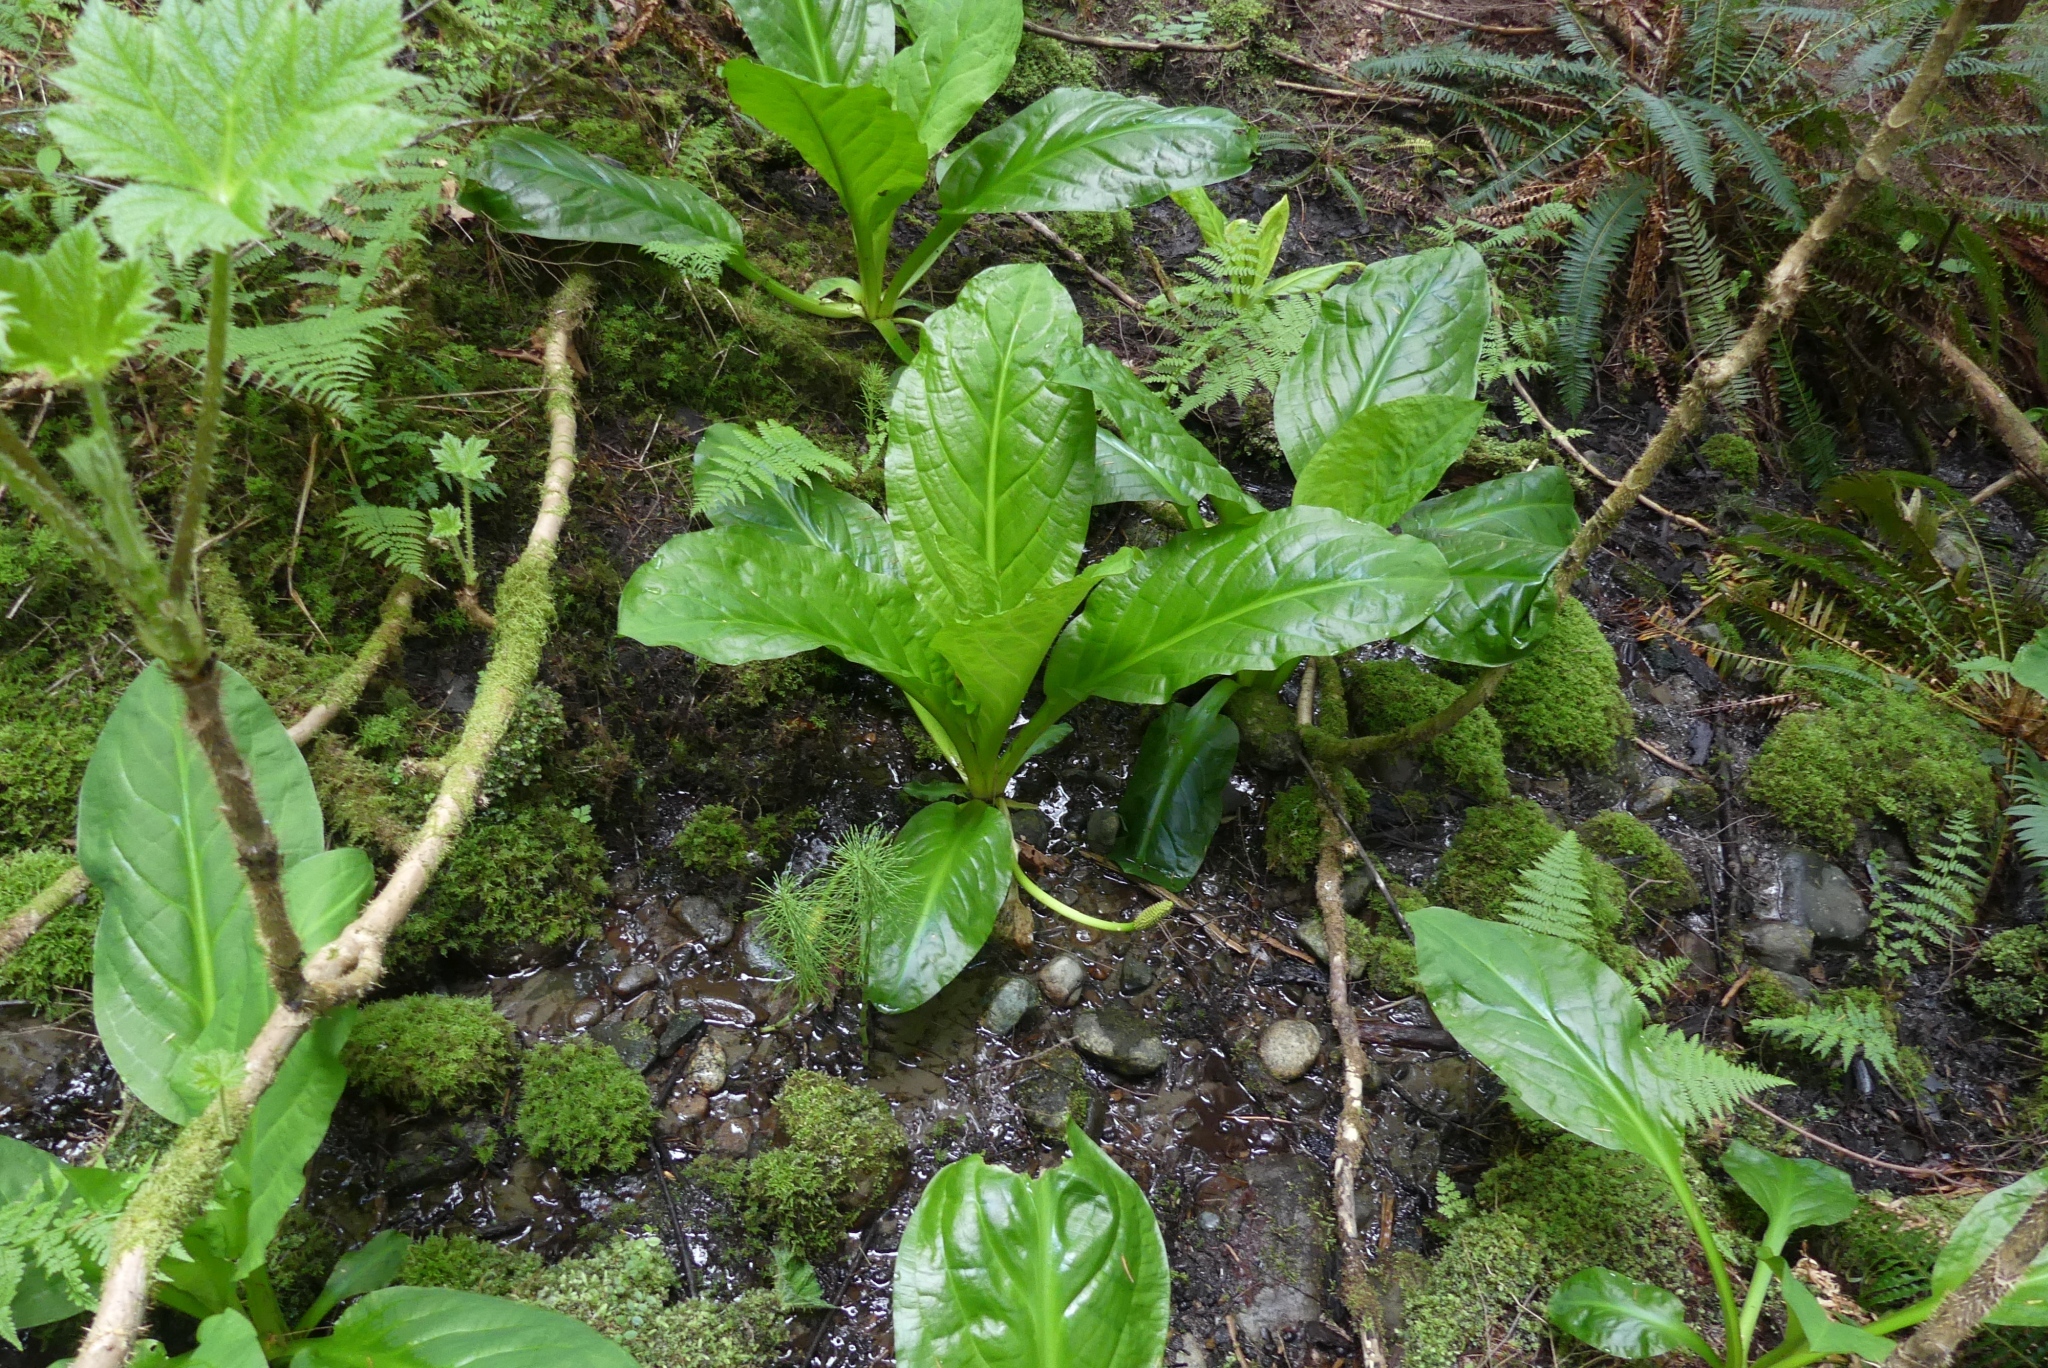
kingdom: Plantae
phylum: Tracheophyta
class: Liliopsida
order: Alismatales
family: Araceae
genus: Lysichiton
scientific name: Lysichiton americanus
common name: American skunk cabbage
